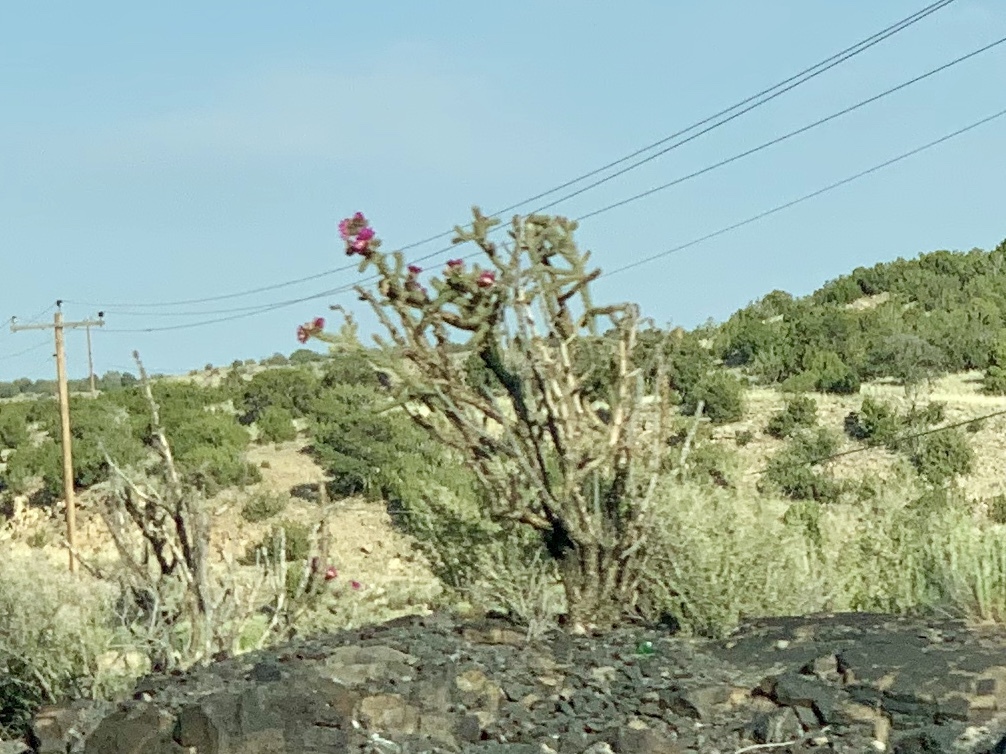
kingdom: Plantae
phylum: Tracheophyta
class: Magnoliopsida
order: Caryophyllales
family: Cactaceae
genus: Cylindropuntia
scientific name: Cylindropuntia imbricata
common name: Candelabrum cactus
